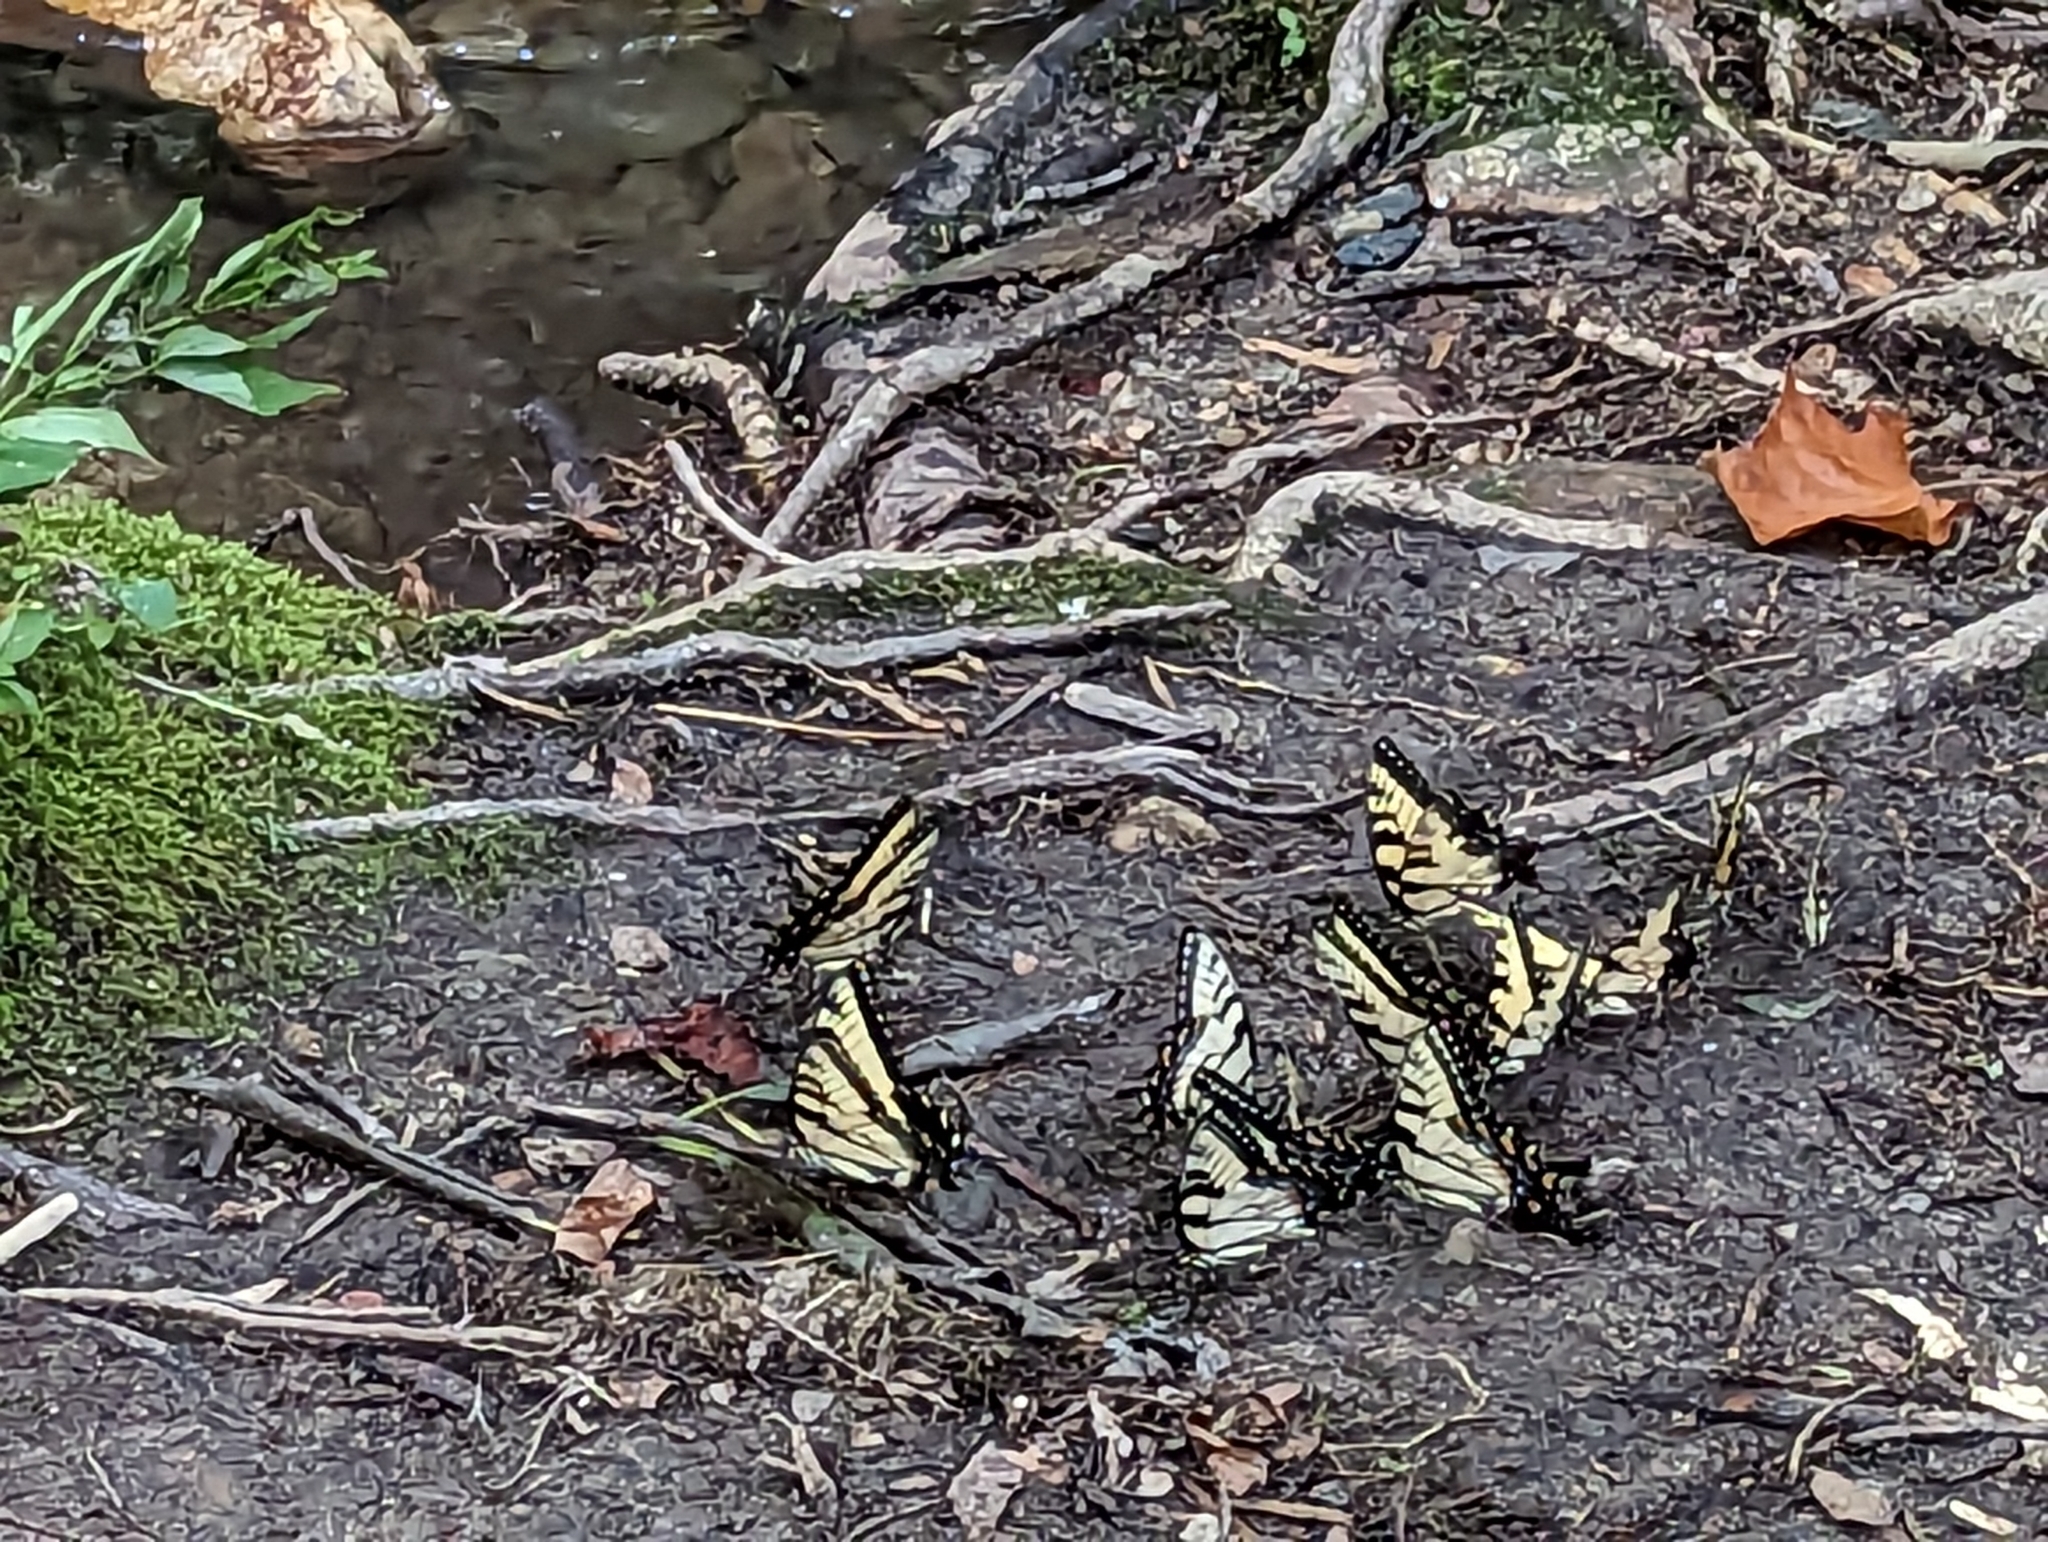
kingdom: Animalia
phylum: Arthropoda
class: Insecta
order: Lepidoptera
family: Papilionidae
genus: Papilio
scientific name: Papilio glaucus
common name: Tiger swallowtail
